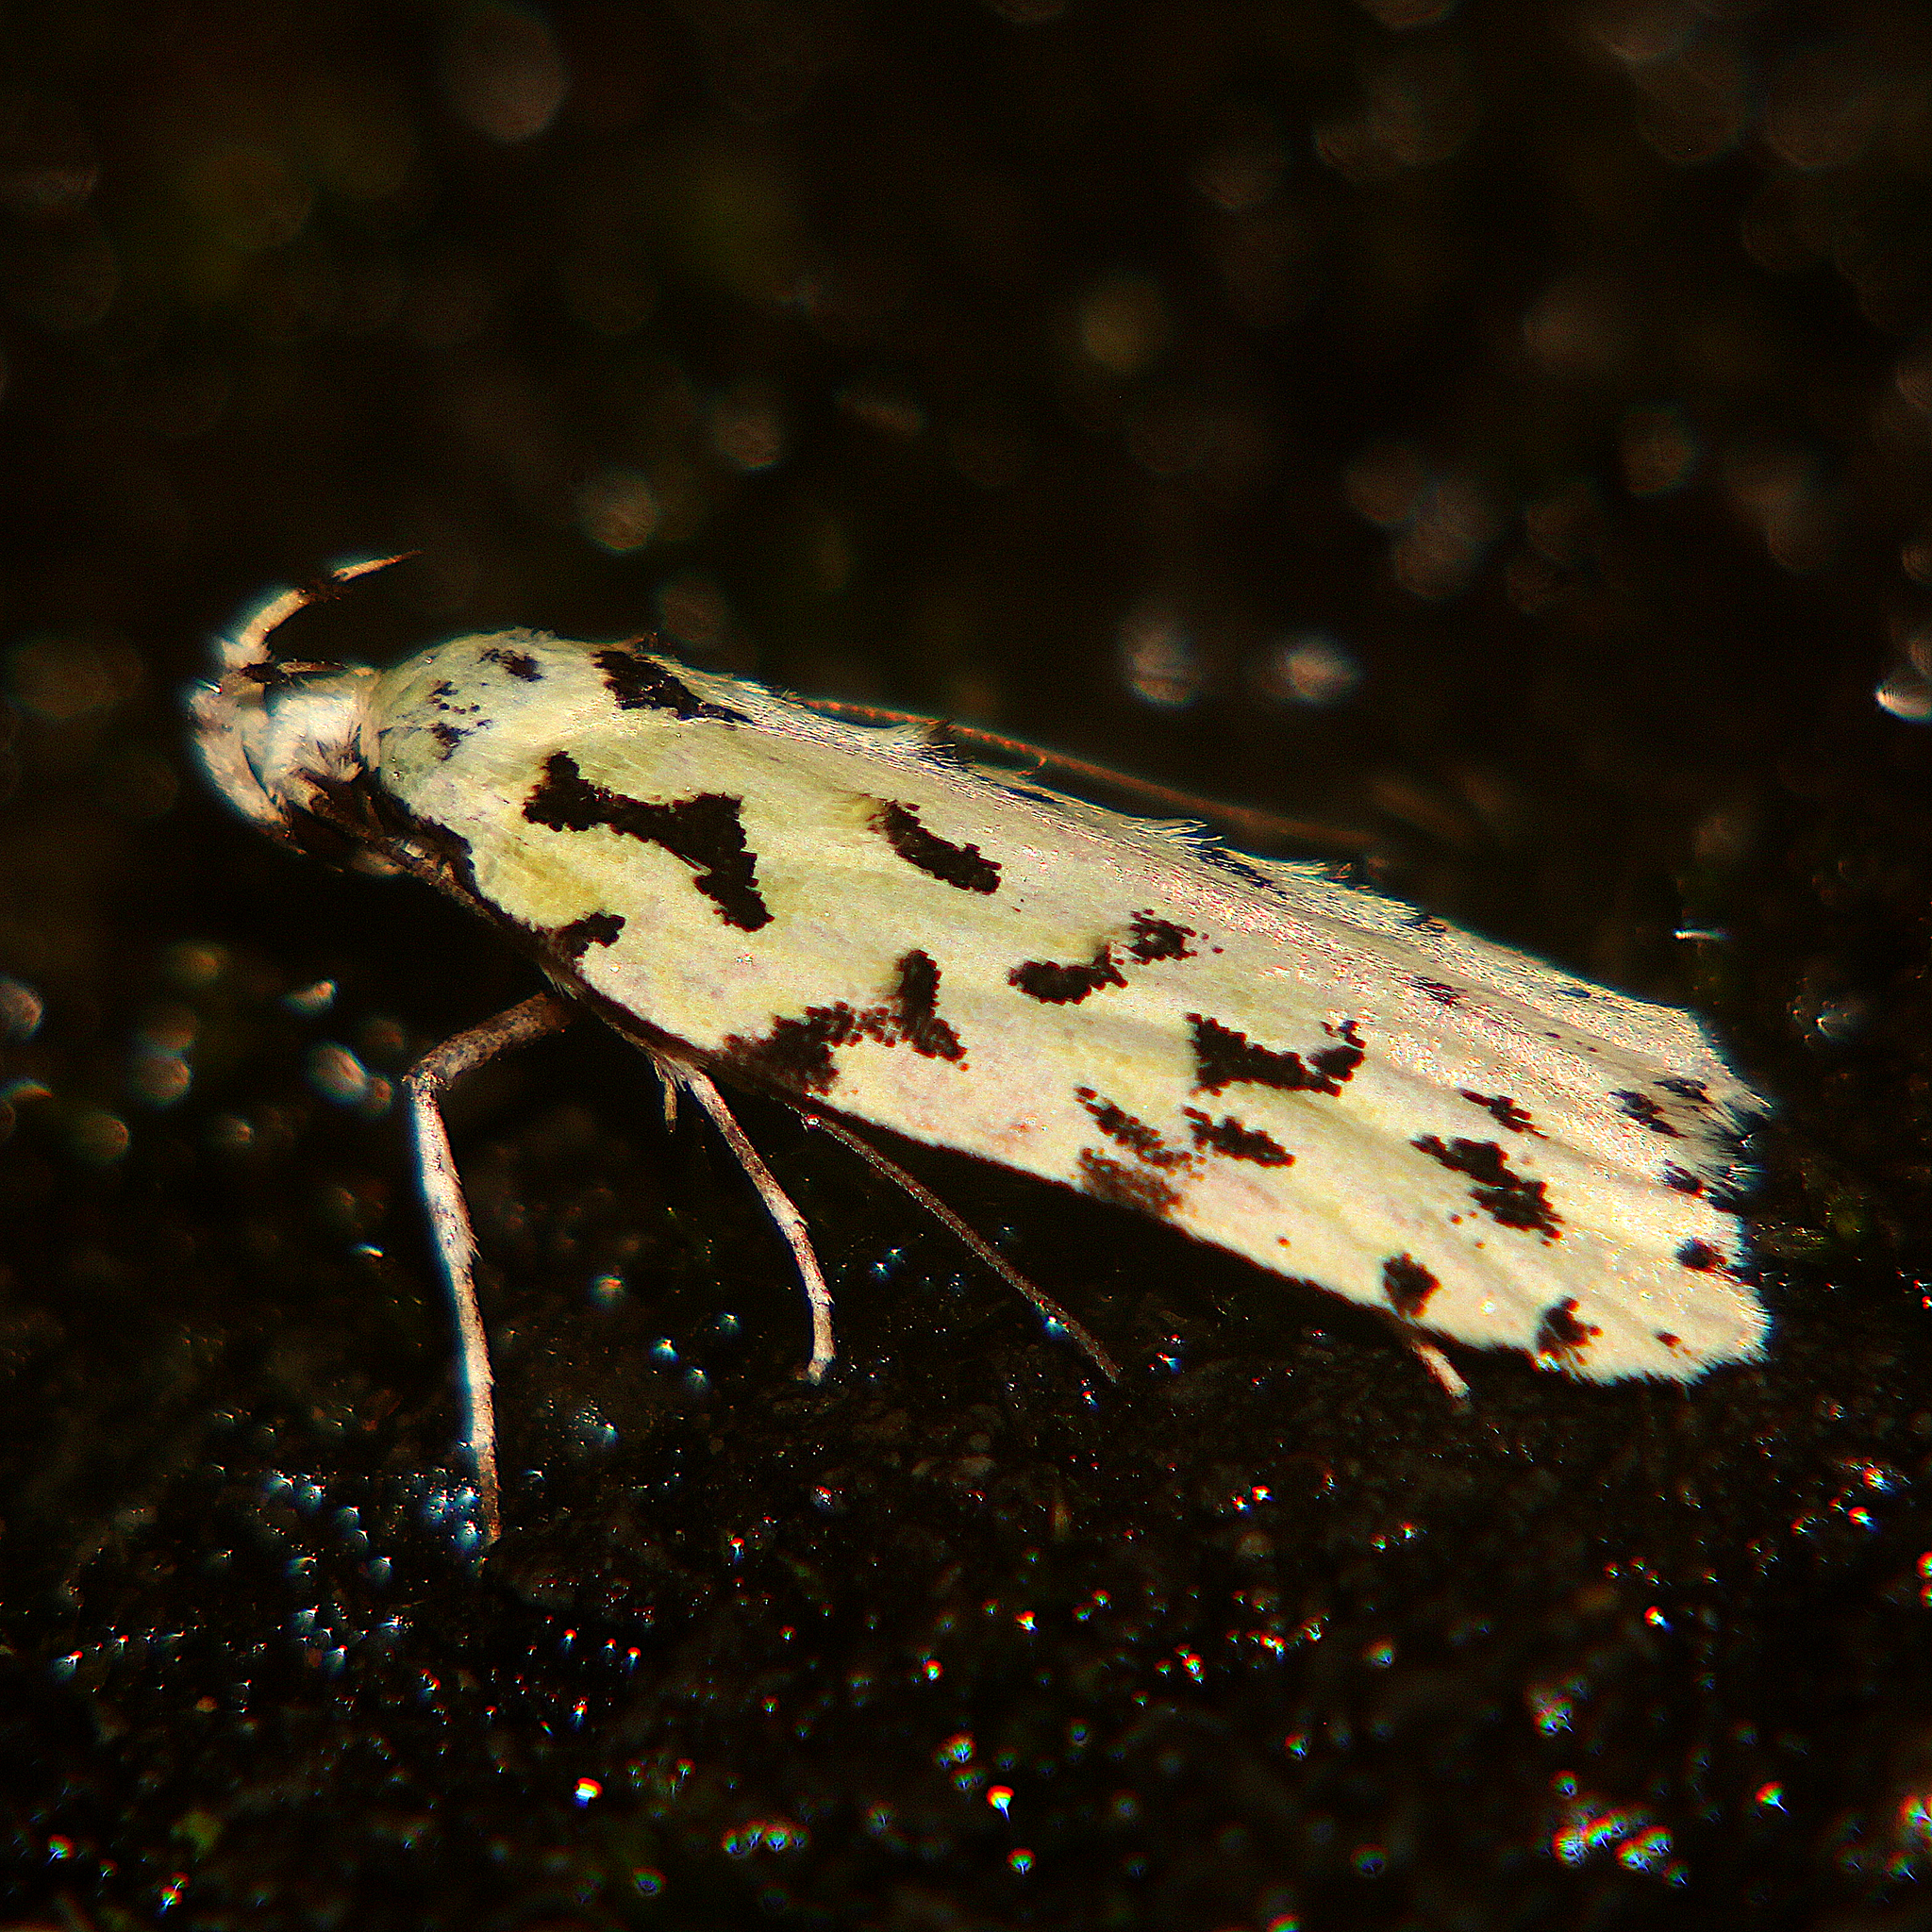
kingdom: Animalia
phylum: Arthropoda
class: Insecta
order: Lepidoptera
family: Oecophoridae
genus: Izatha
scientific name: Izatha peroneanella
